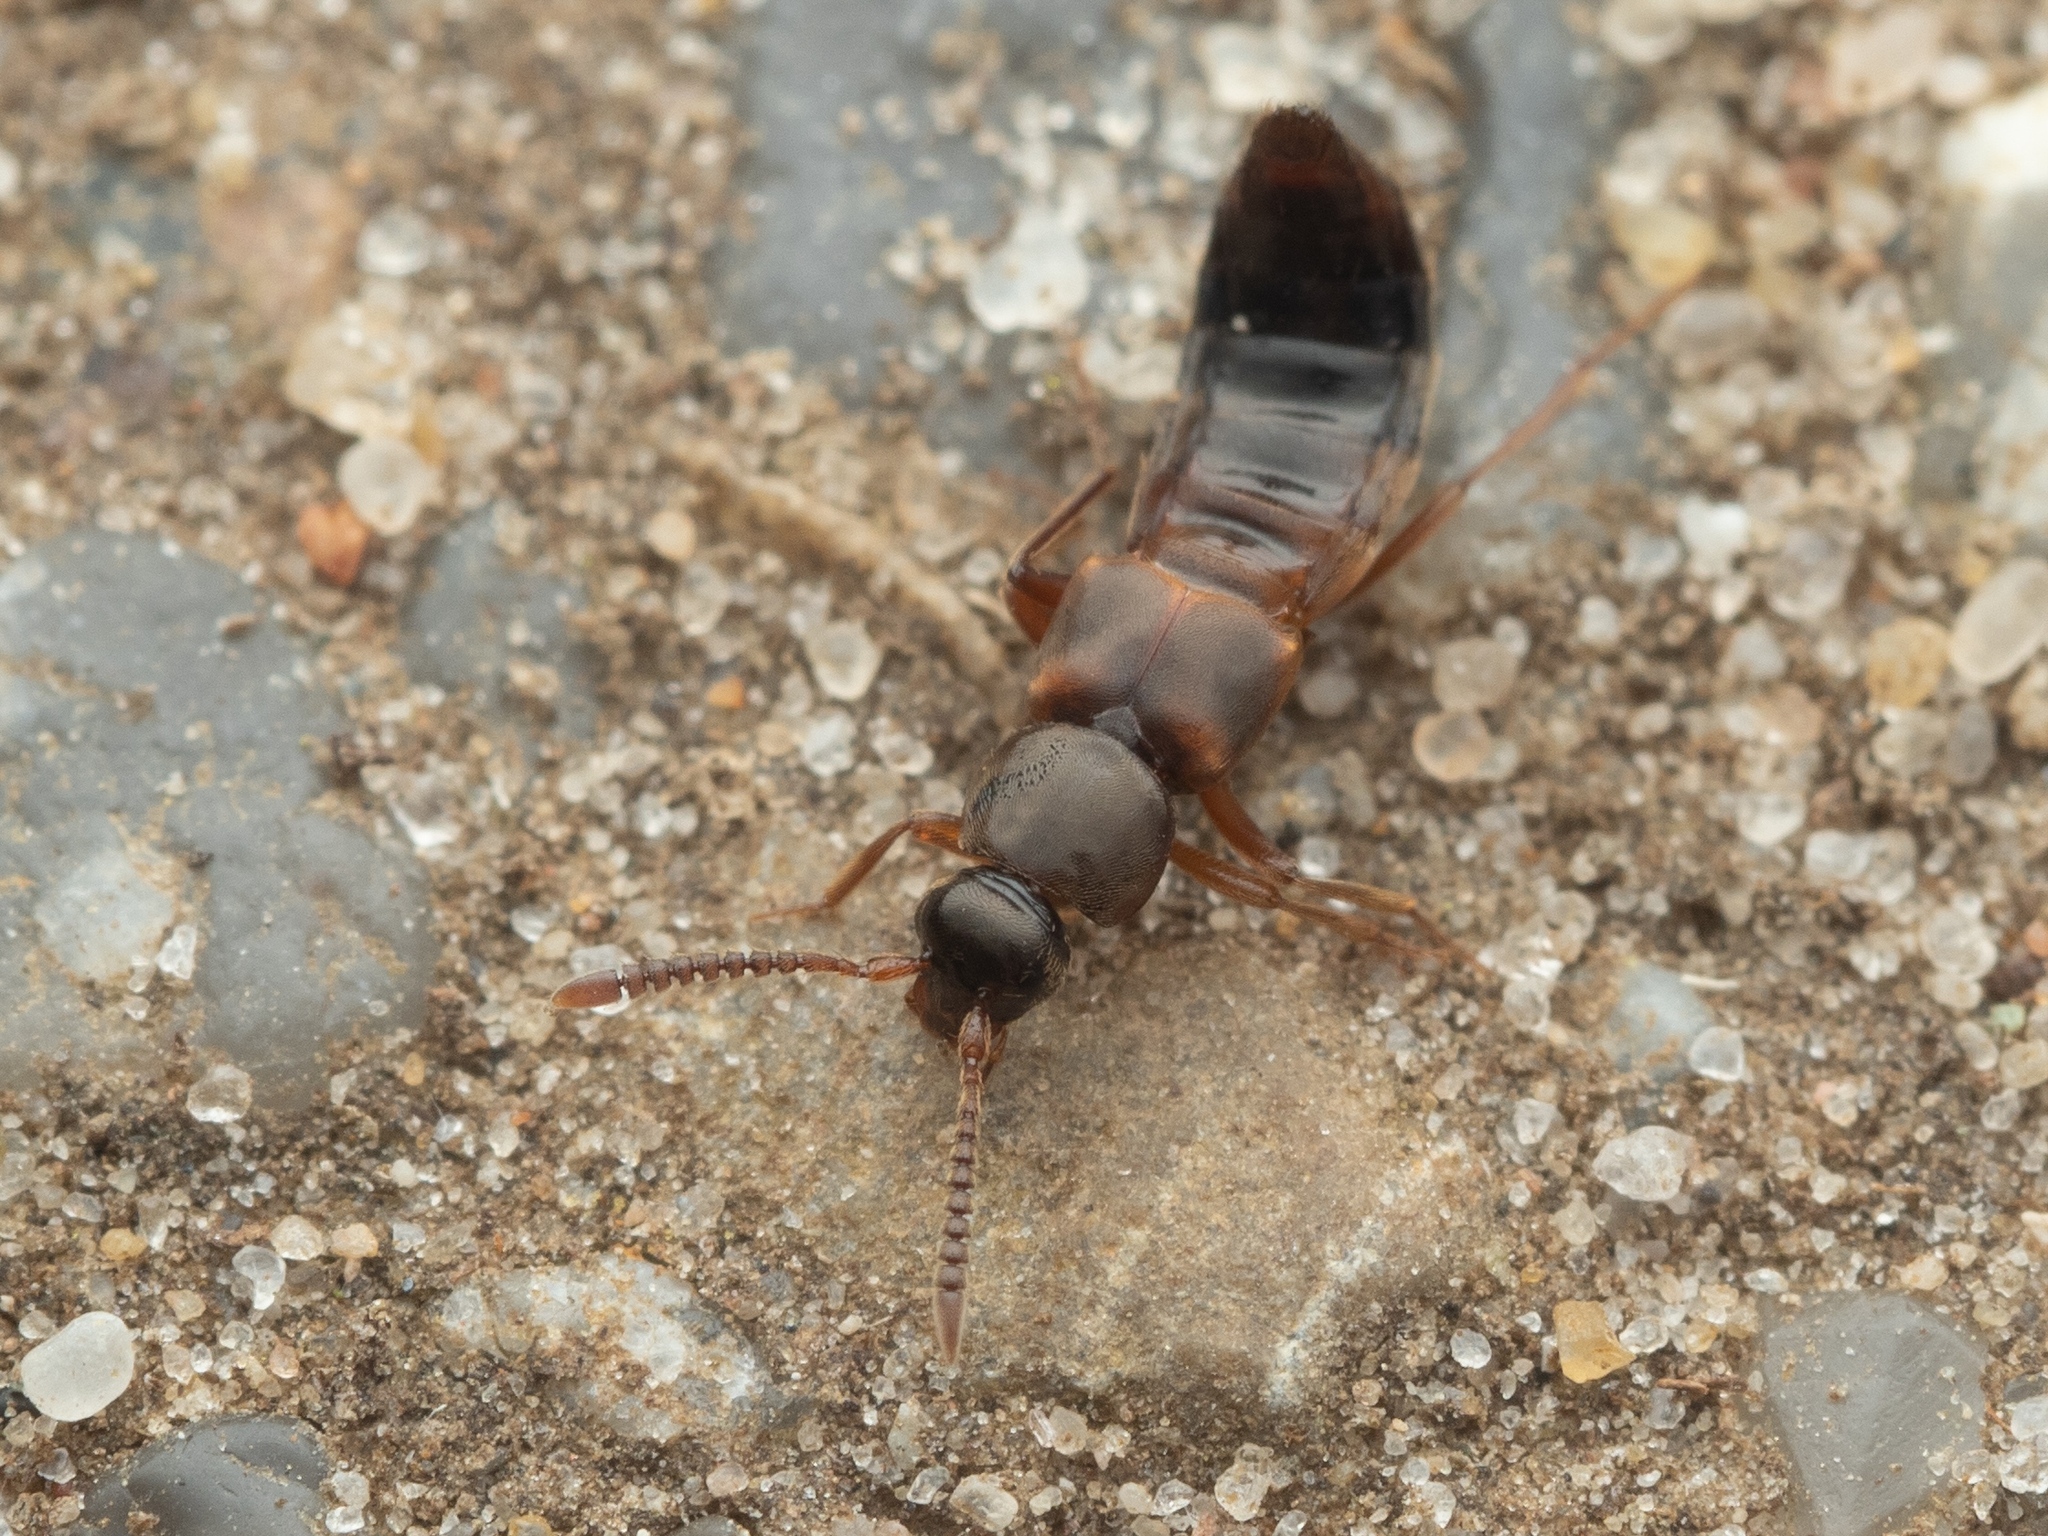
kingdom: Animalia
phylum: Arthropoda
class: Insecta
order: Coleoptera
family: Staphylinidae
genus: Pella
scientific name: Pella limbata
